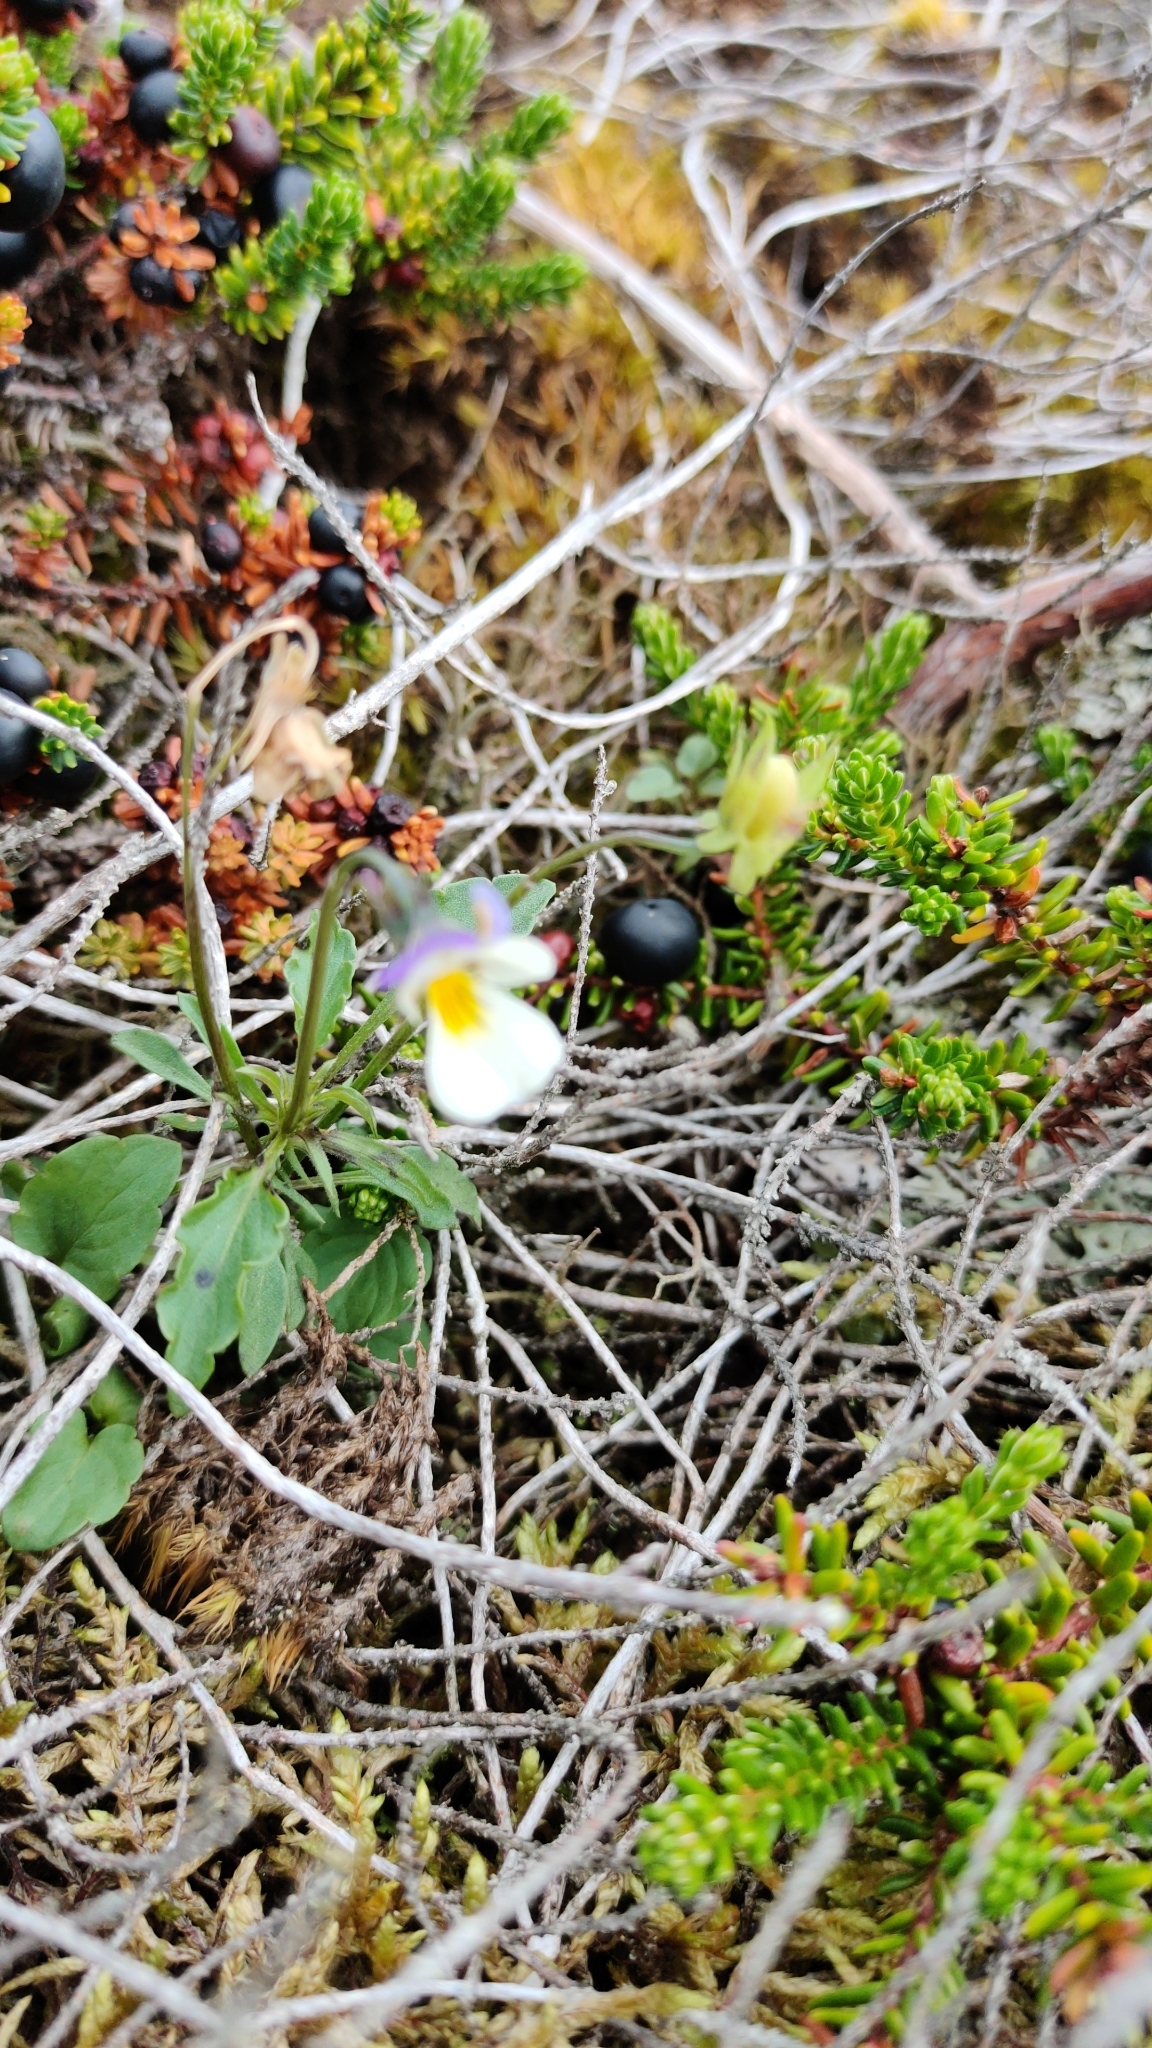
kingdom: Plantae
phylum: Tracheophyta
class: Magnoliopsida
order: Malpighiales
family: Violaceae
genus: Viola
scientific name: Viola arvensis
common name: Field pansy
